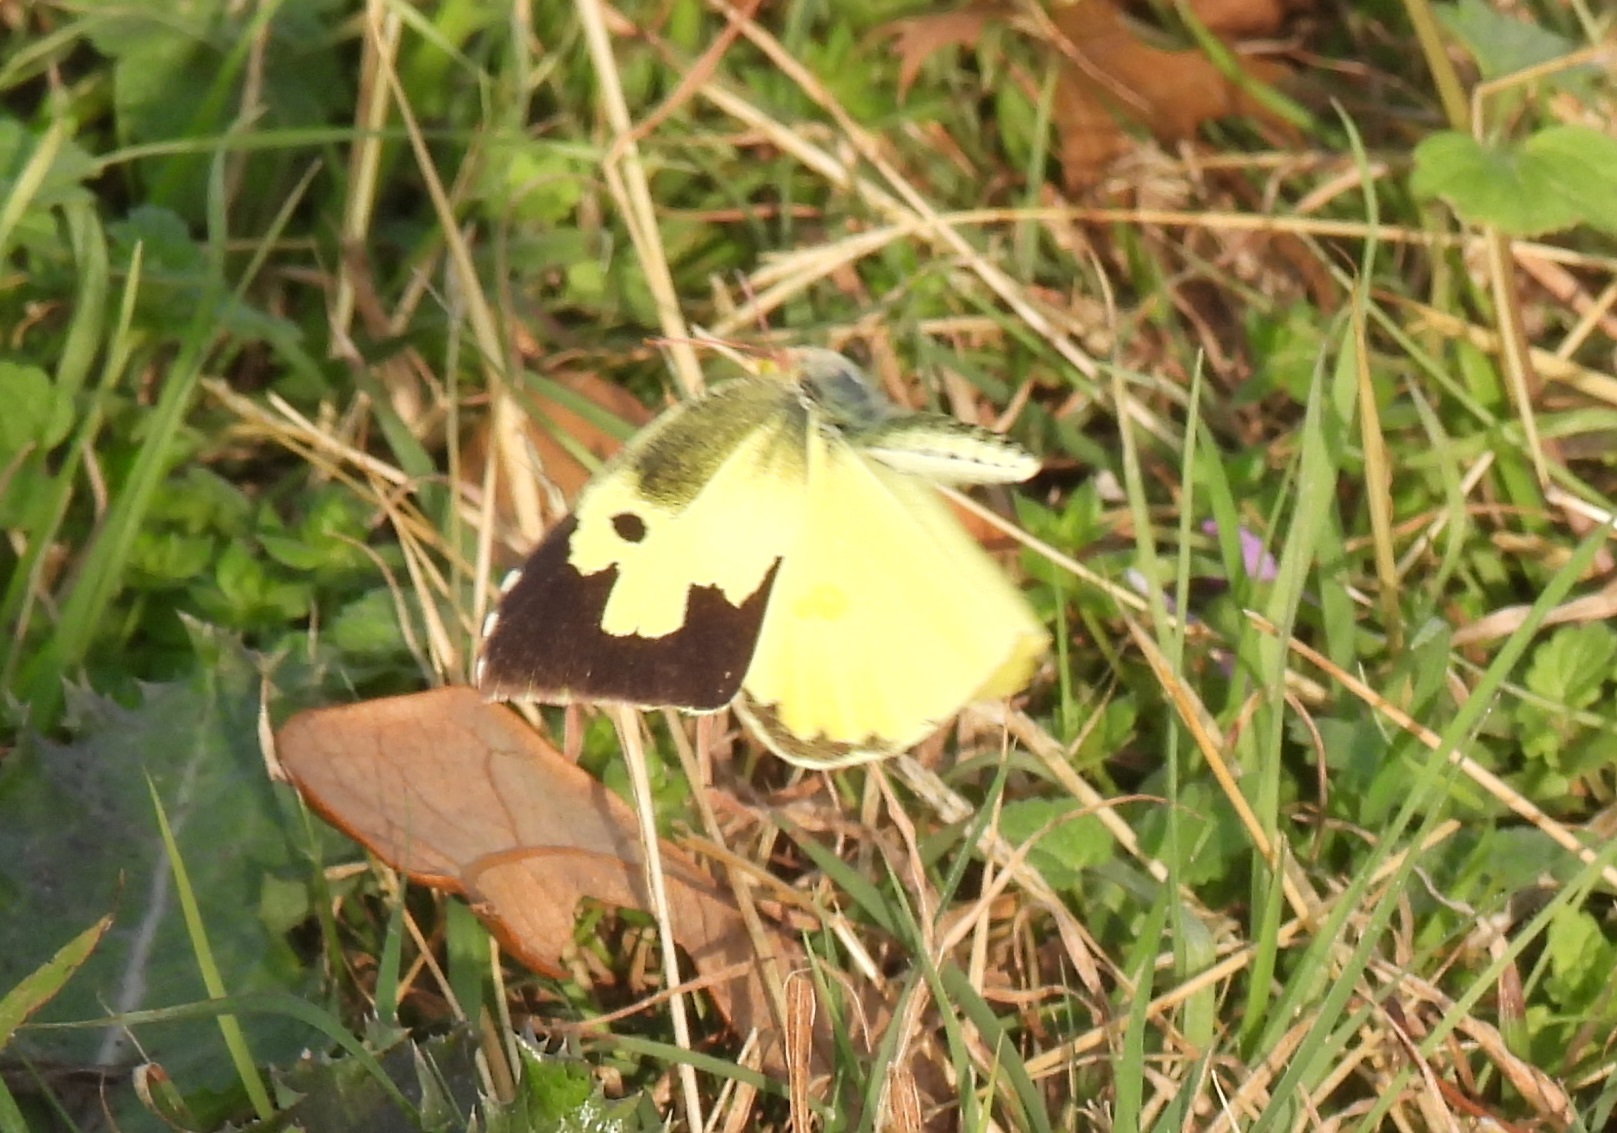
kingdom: Animalia
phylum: Arthropoda
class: Insecta
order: Lepidoptera
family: Pieridae
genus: Zerene
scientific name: Zerene cesonia
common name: Southern dogface
